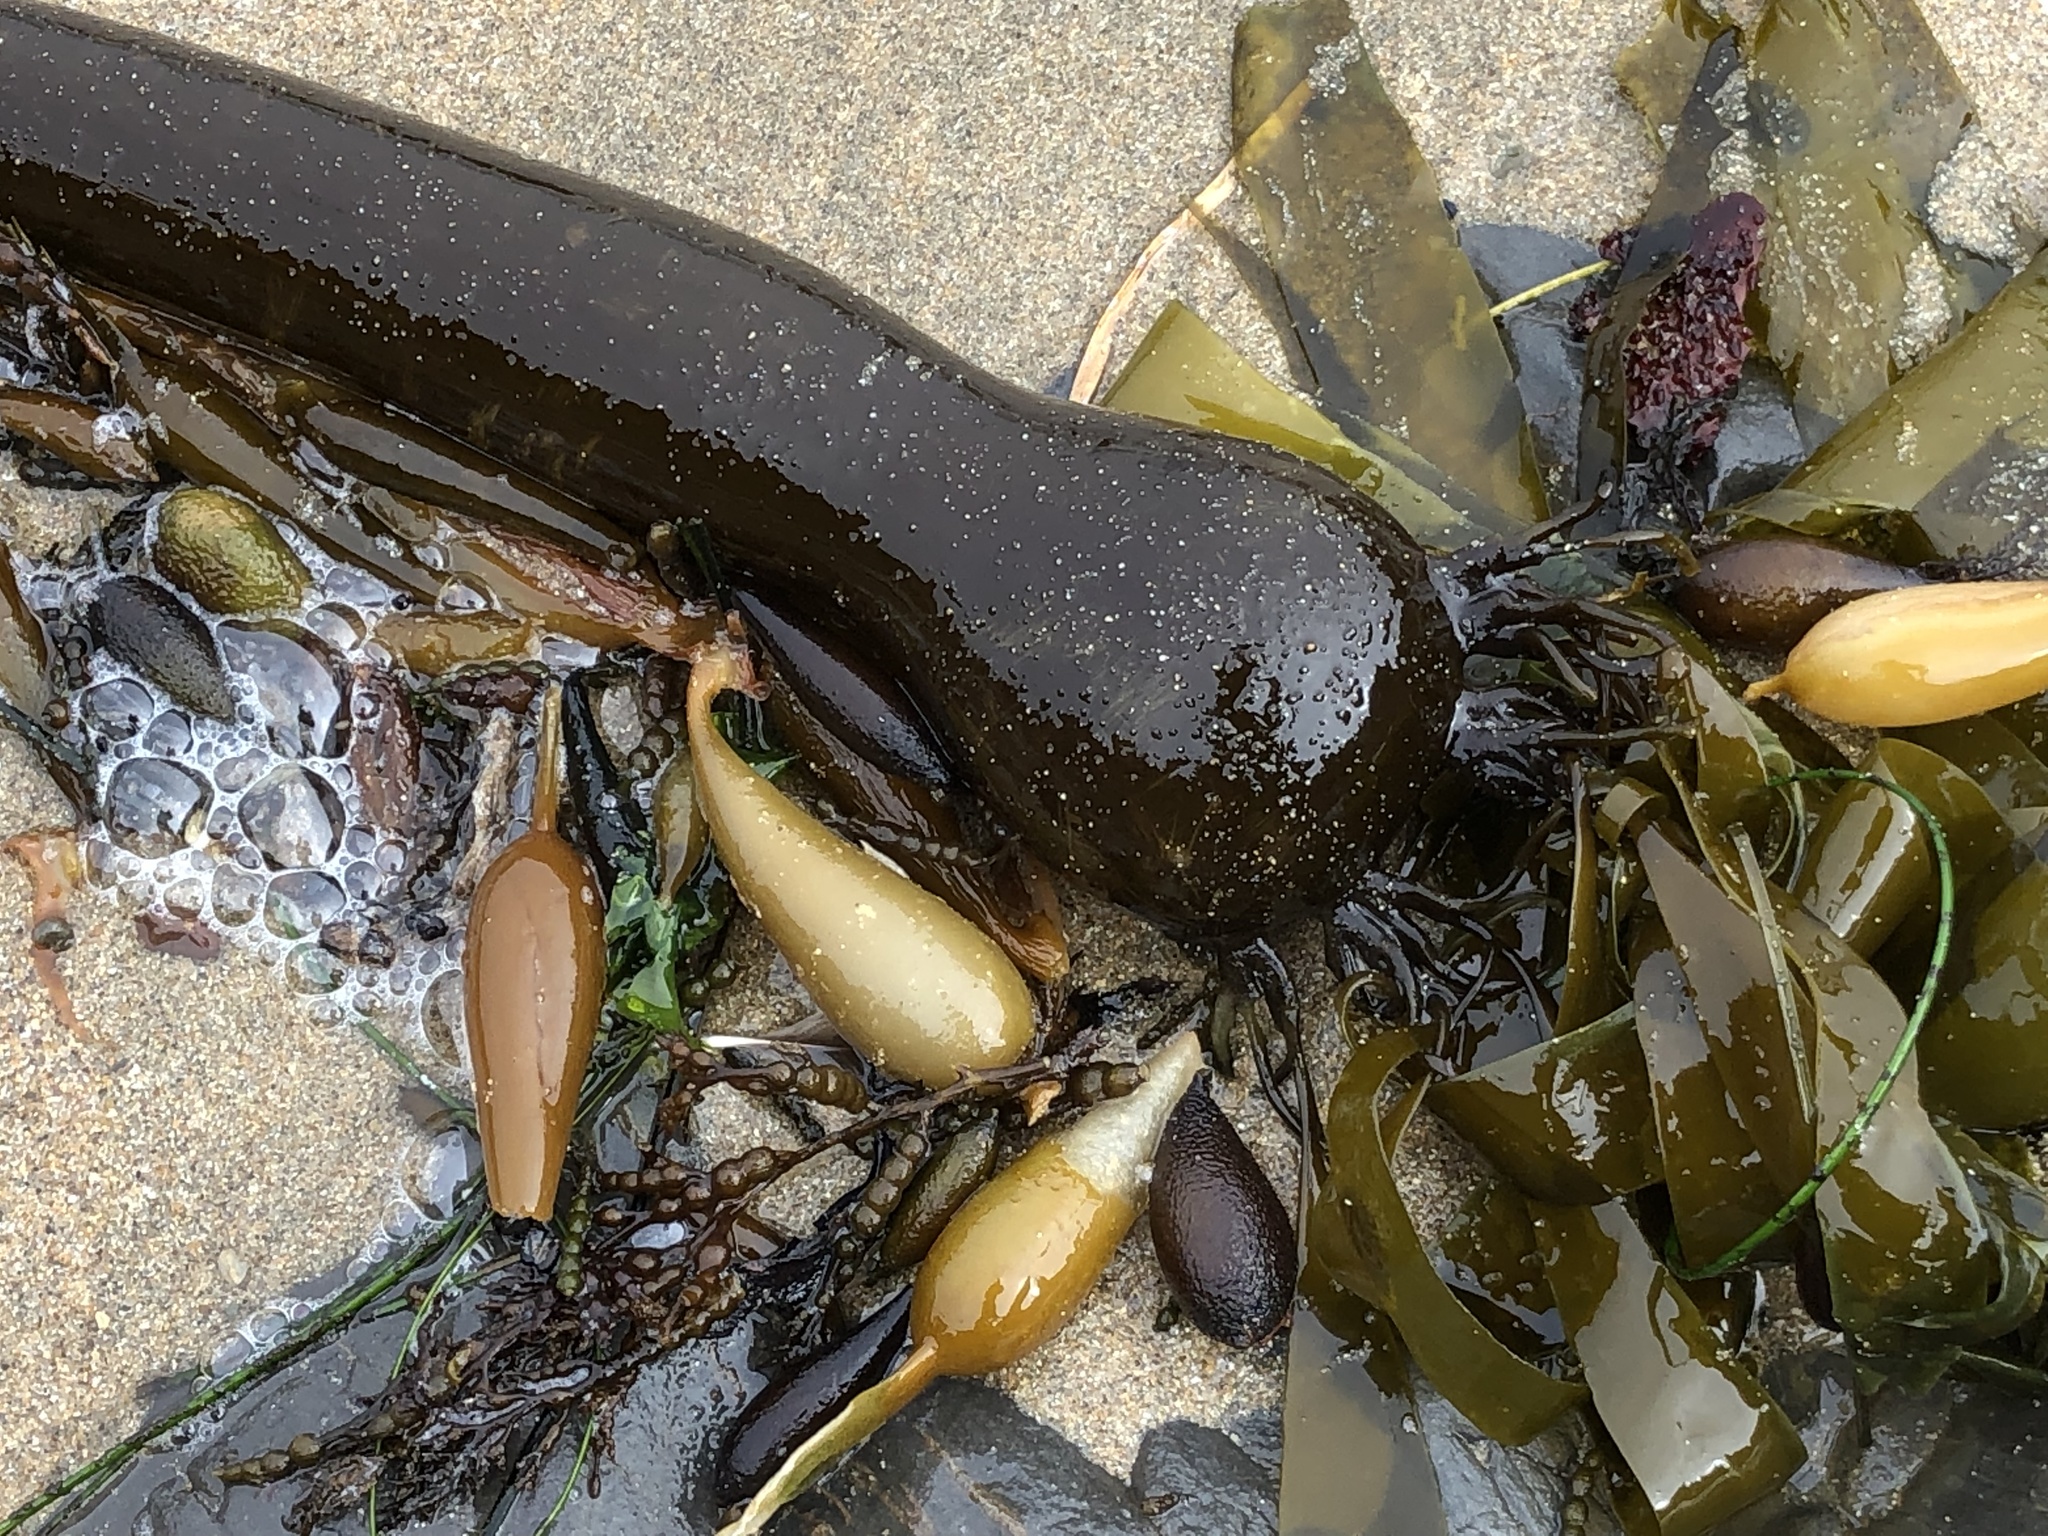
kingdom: Chromista
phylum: Ochrophyta
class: Phaeophyceae
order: Laminariales
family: Laminariaceae
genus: Nereocystis
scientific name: Nereocystis luetkeana
